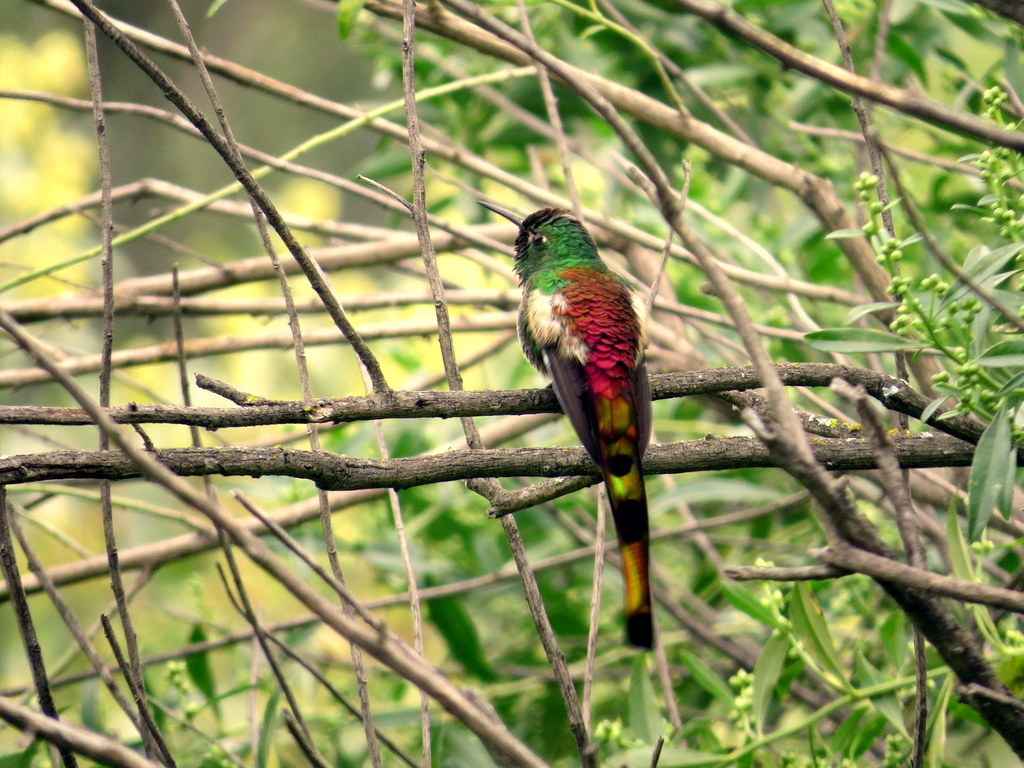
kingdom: Animalia
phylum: Chordata
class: Aves
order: Apodiformes
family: Trochilidae
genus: Sappho
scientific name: Sappho sparganurus
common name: Red-tailed comet
